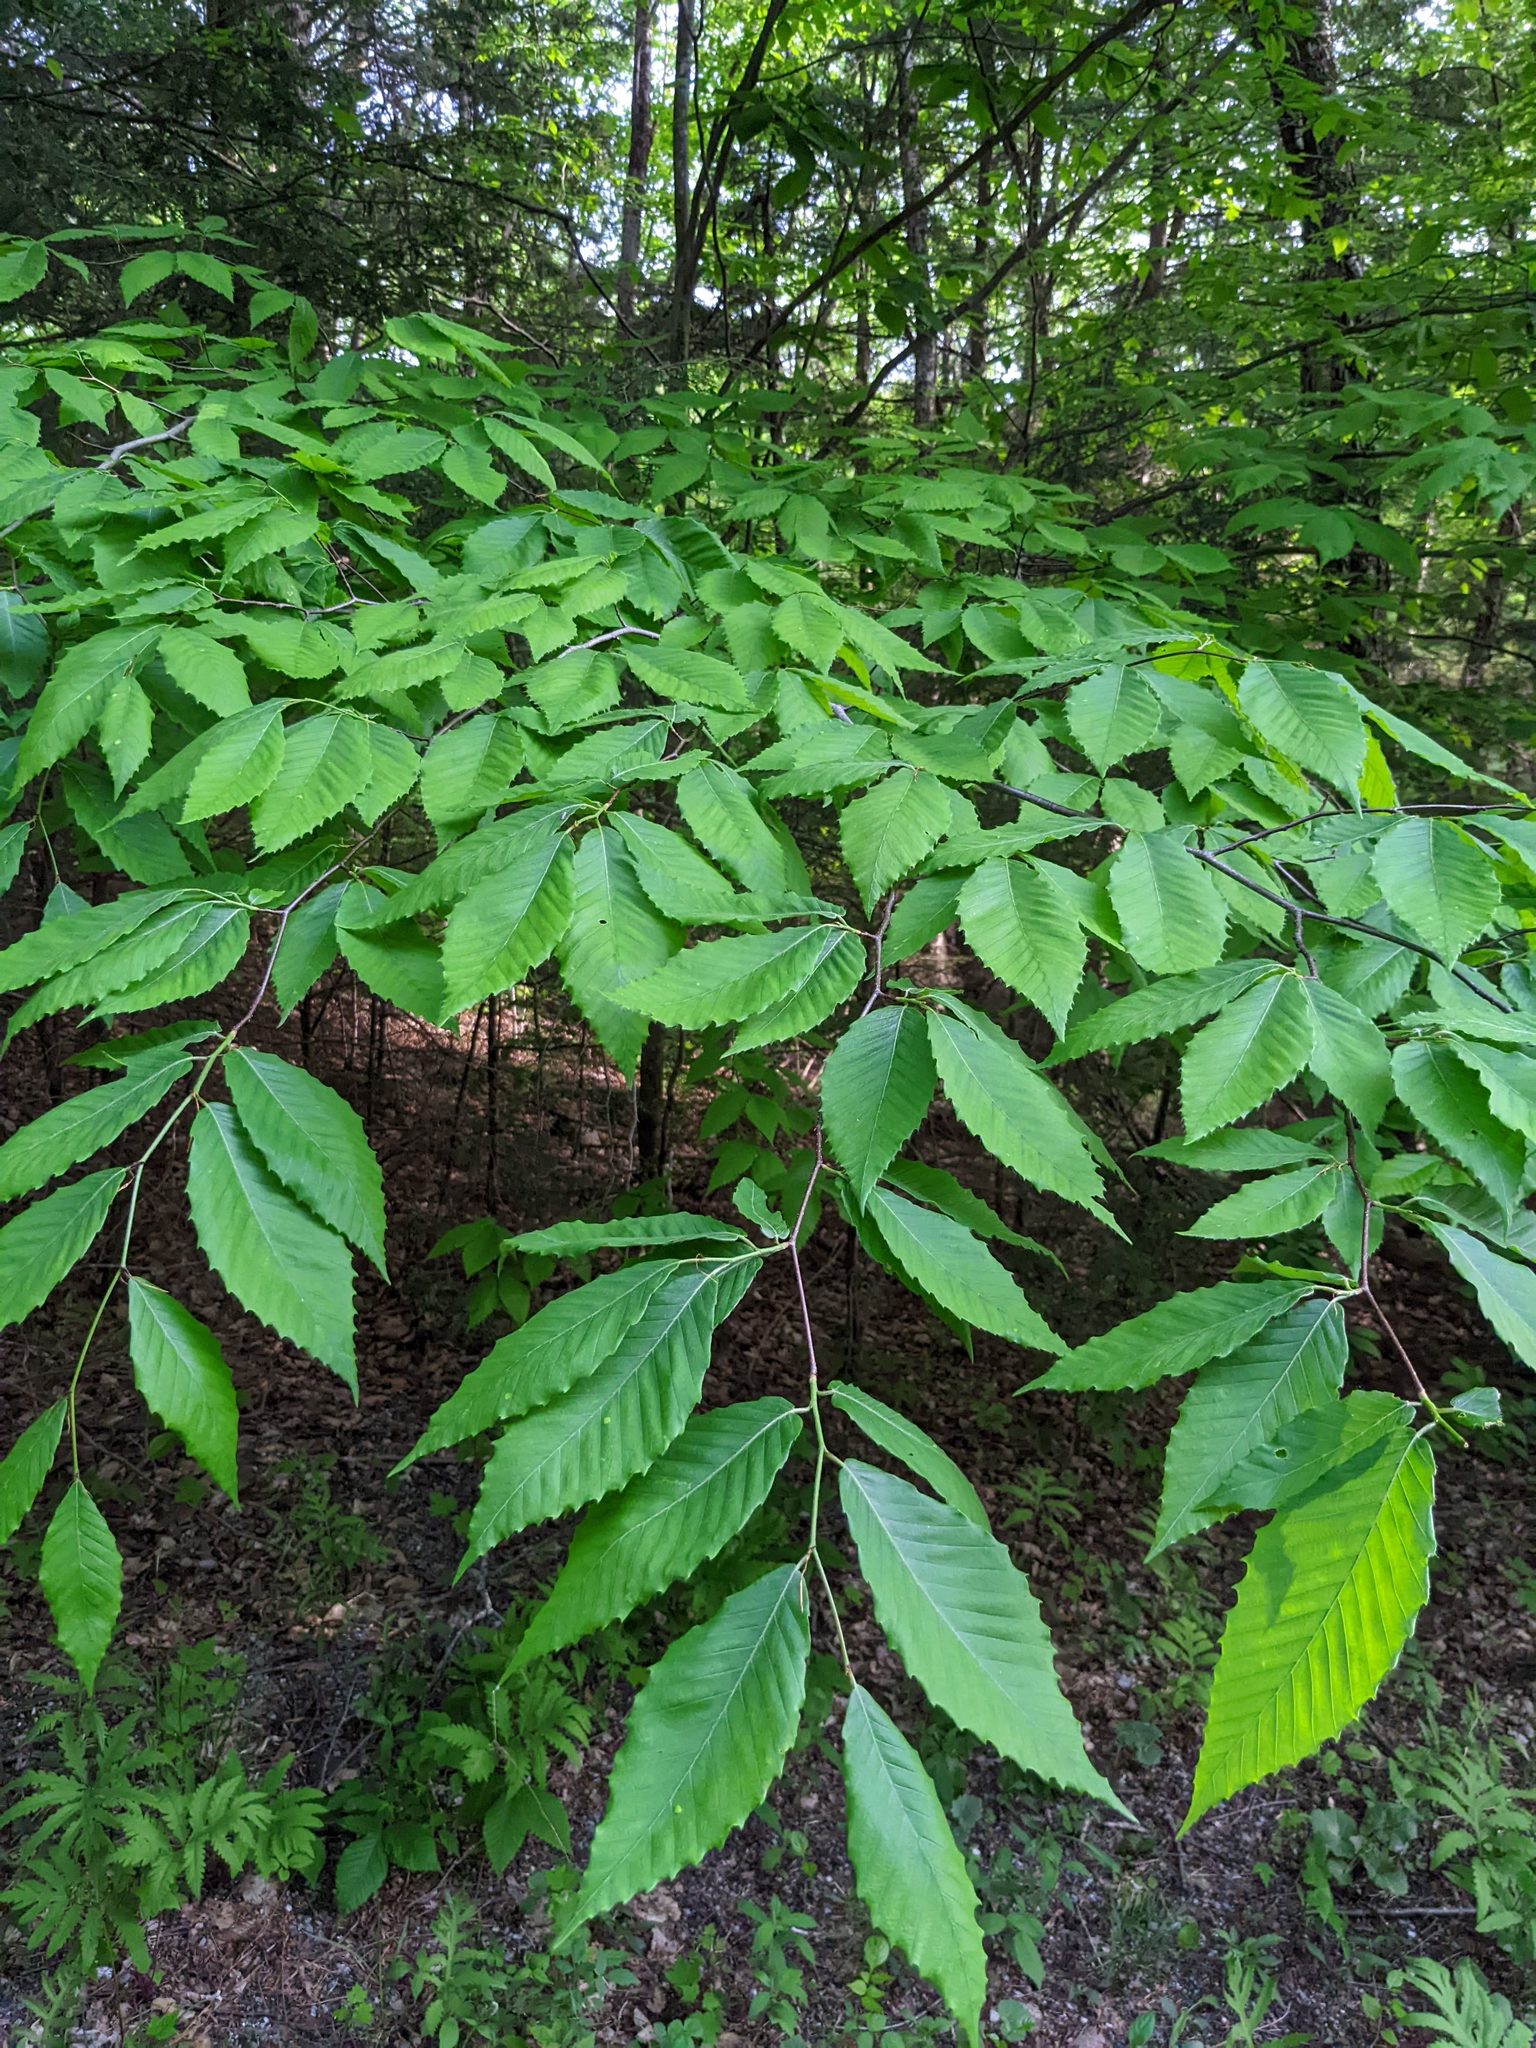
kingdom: Plantae
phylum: Tracheophyta
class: Magnoliopsida
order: Fagales
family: Fagaceae
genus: Fagus
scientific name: Fagus grandifolia
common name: American beech
